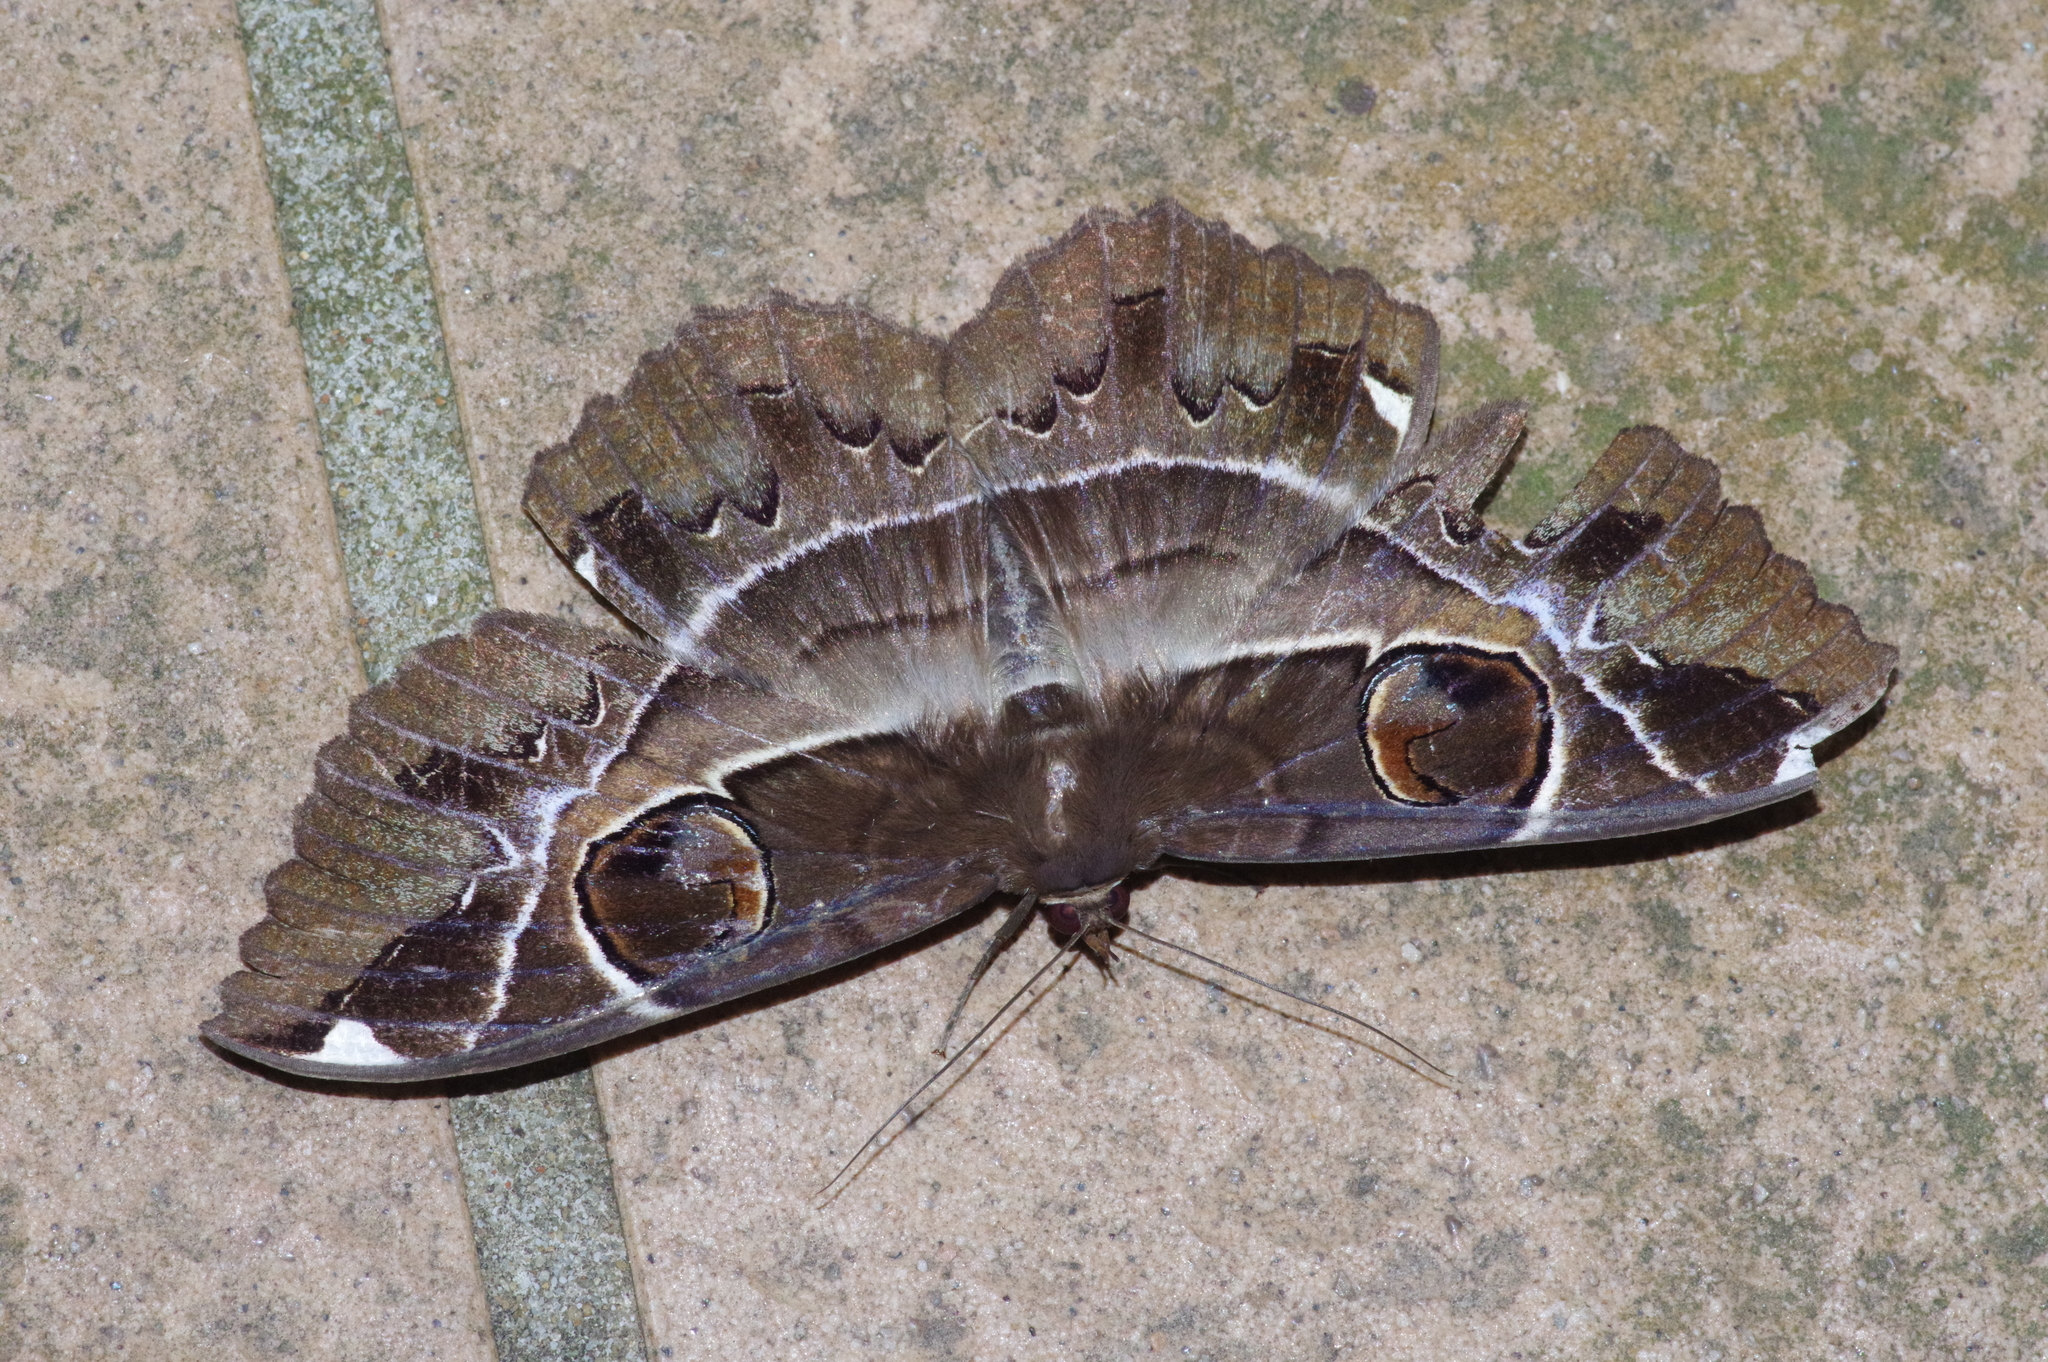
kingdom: Animalia
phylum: Arthropoda
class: Insecta
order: Lepidoptera
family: Erebidae
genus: Erebus
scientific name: Erebus ephesperis
